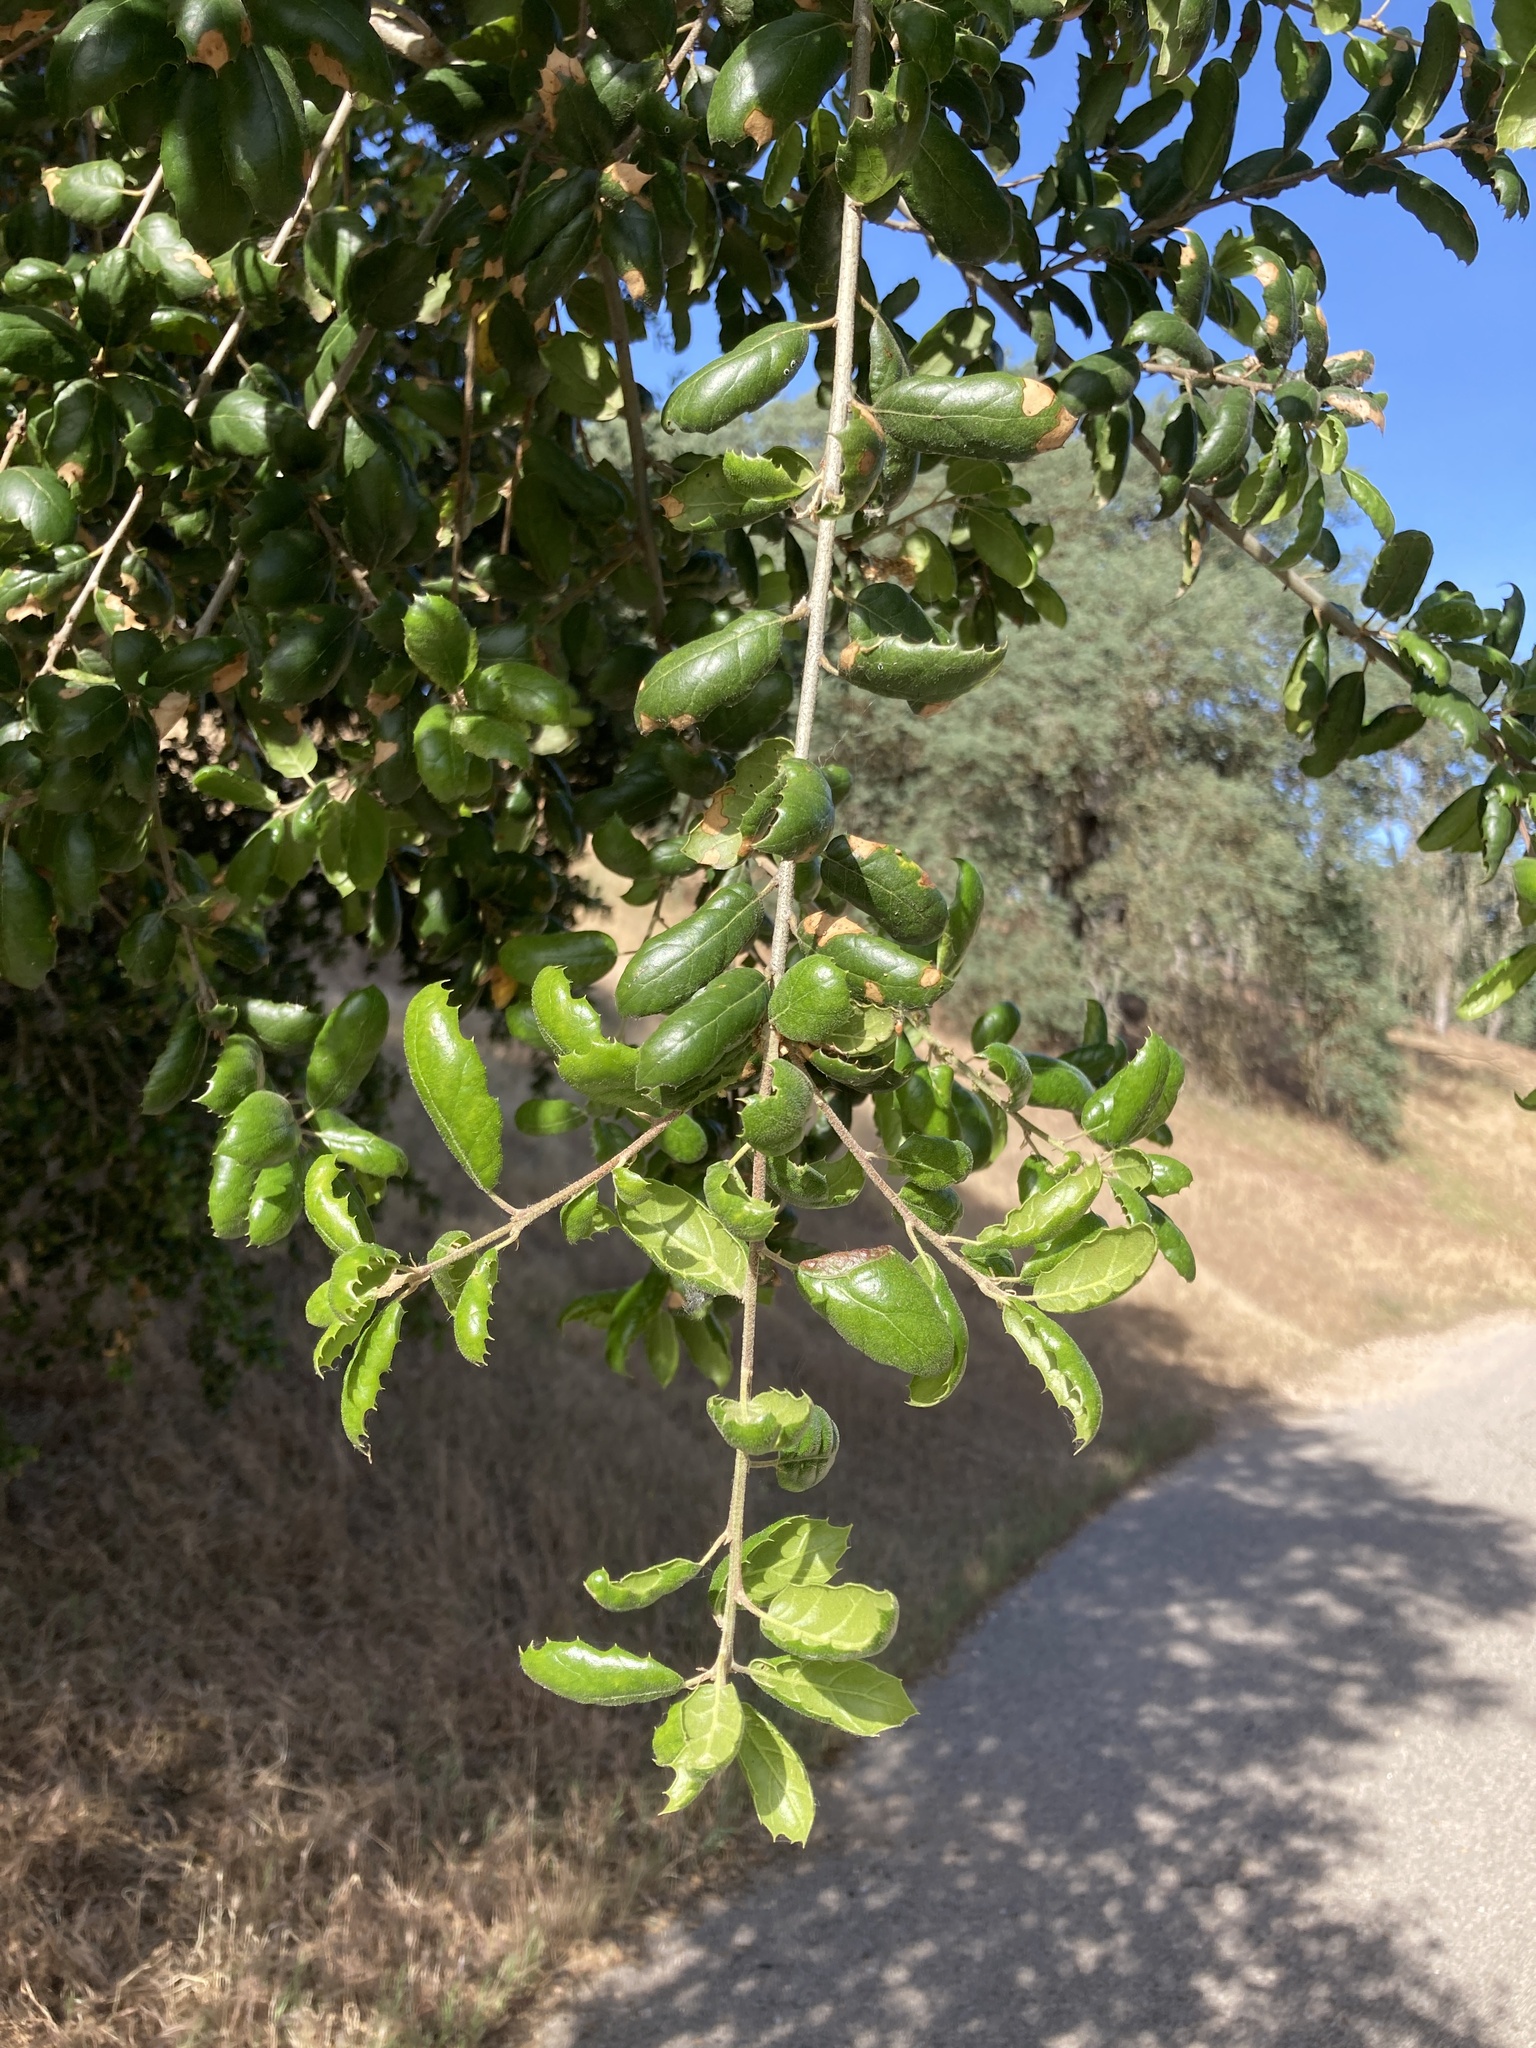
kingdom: Plantae
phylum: Tracheophyta
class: Magnoliopsida
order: Fagales
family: Fagaceae
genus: Quercus
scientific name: Quercus agrifolia
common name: California live oak
